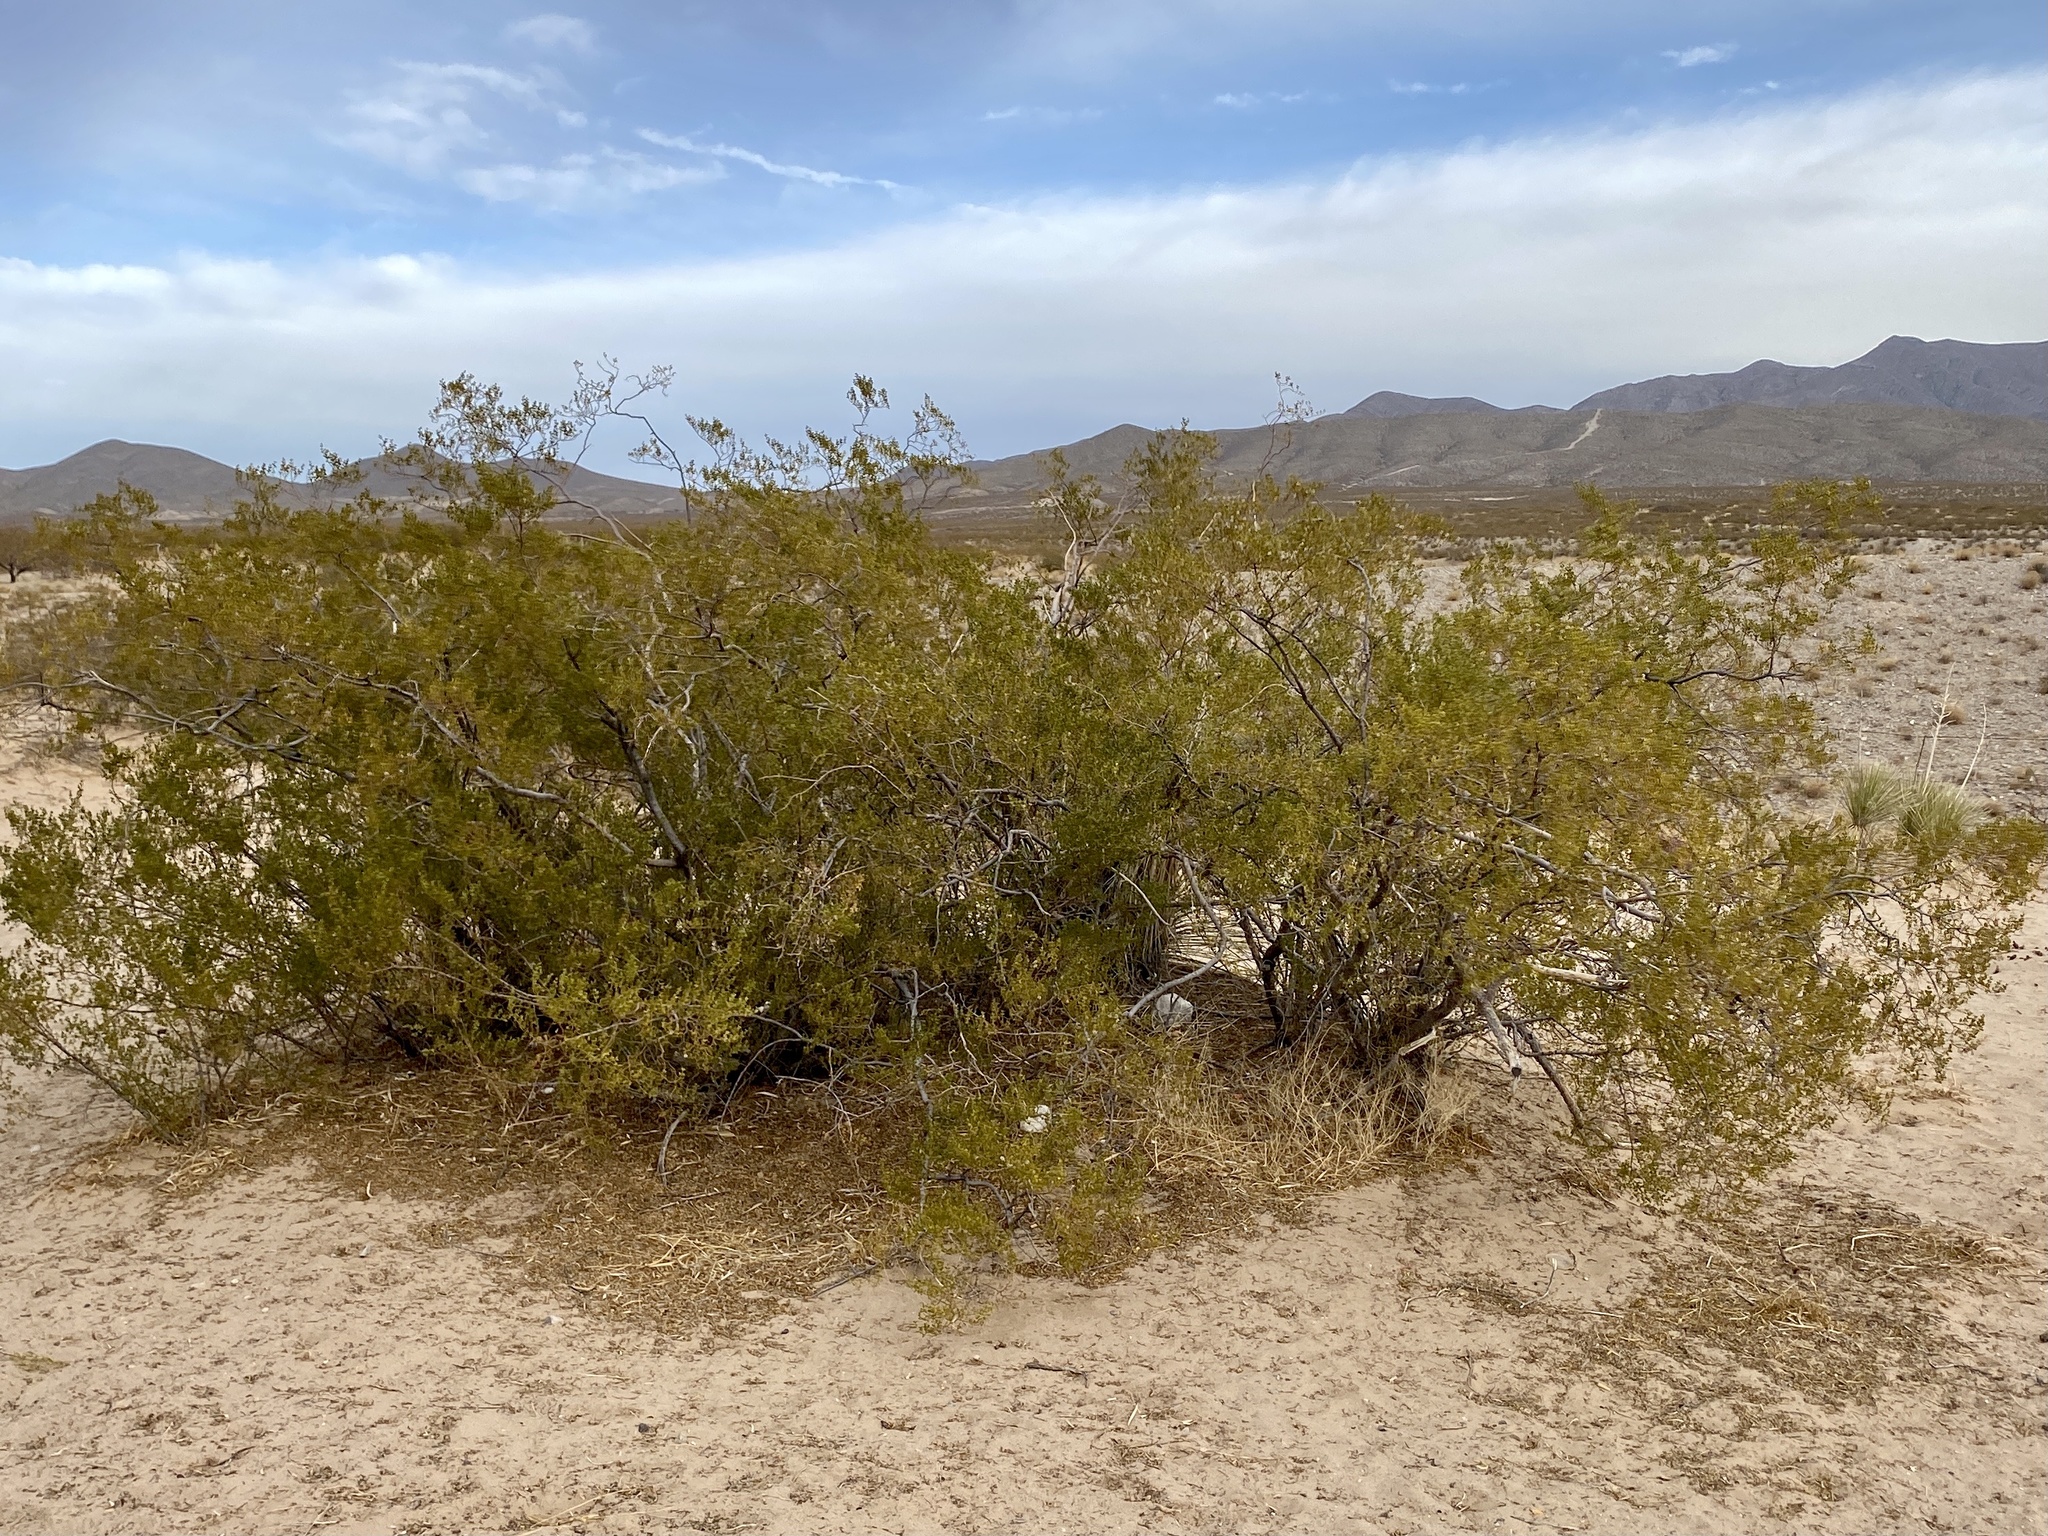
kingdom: Plantae
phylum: Tracheophyta
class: Magnoliopsida
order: Zygophyllales
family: Zygophyllaceae
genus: Larrea
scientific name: Larrea tridentata
